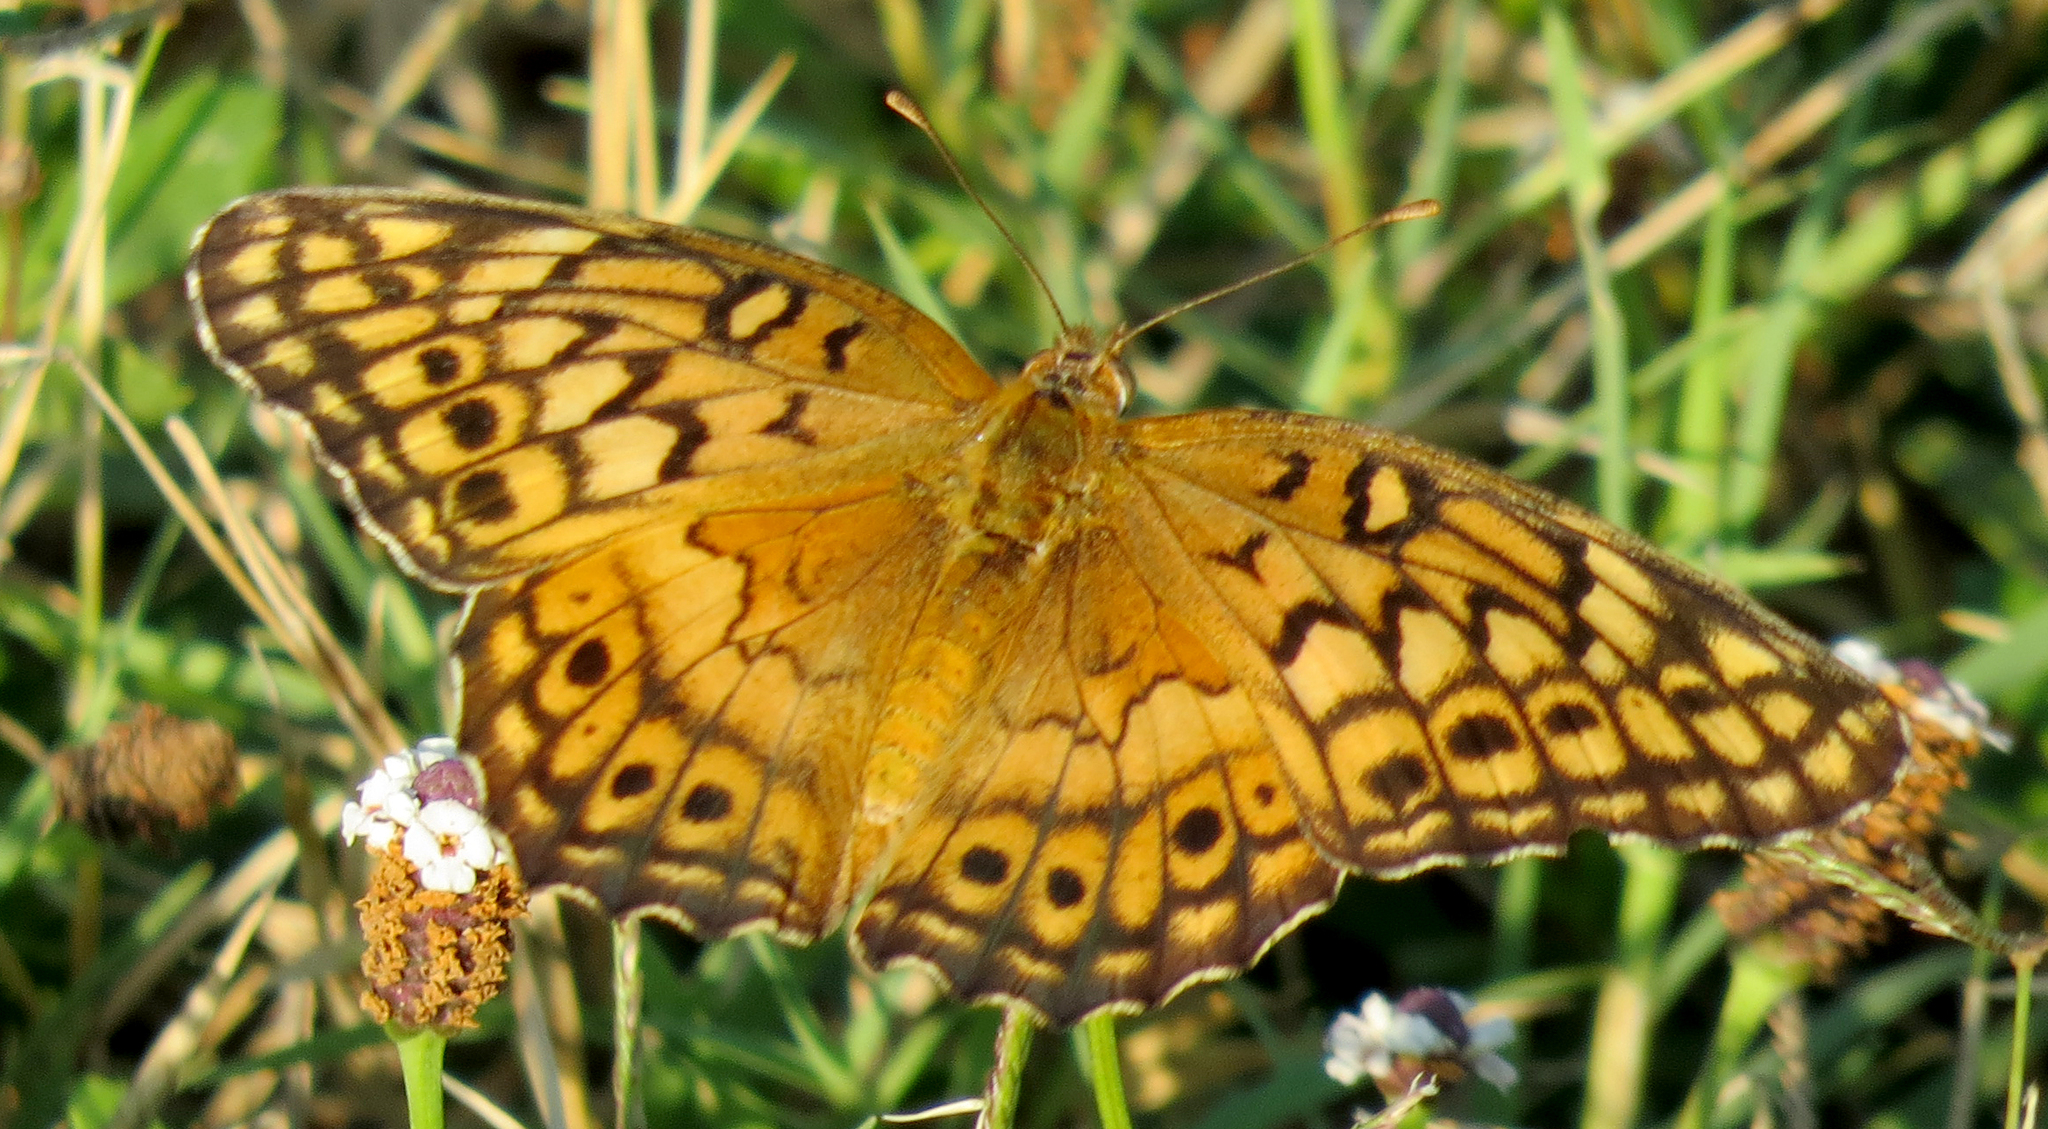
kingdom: Animalia
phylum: Arthropoda
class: Insecta
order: Lepidoptera
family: Nymphalidae
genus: Euptoieta
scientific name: Euptoieta claudia
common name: Variegated fritillary
